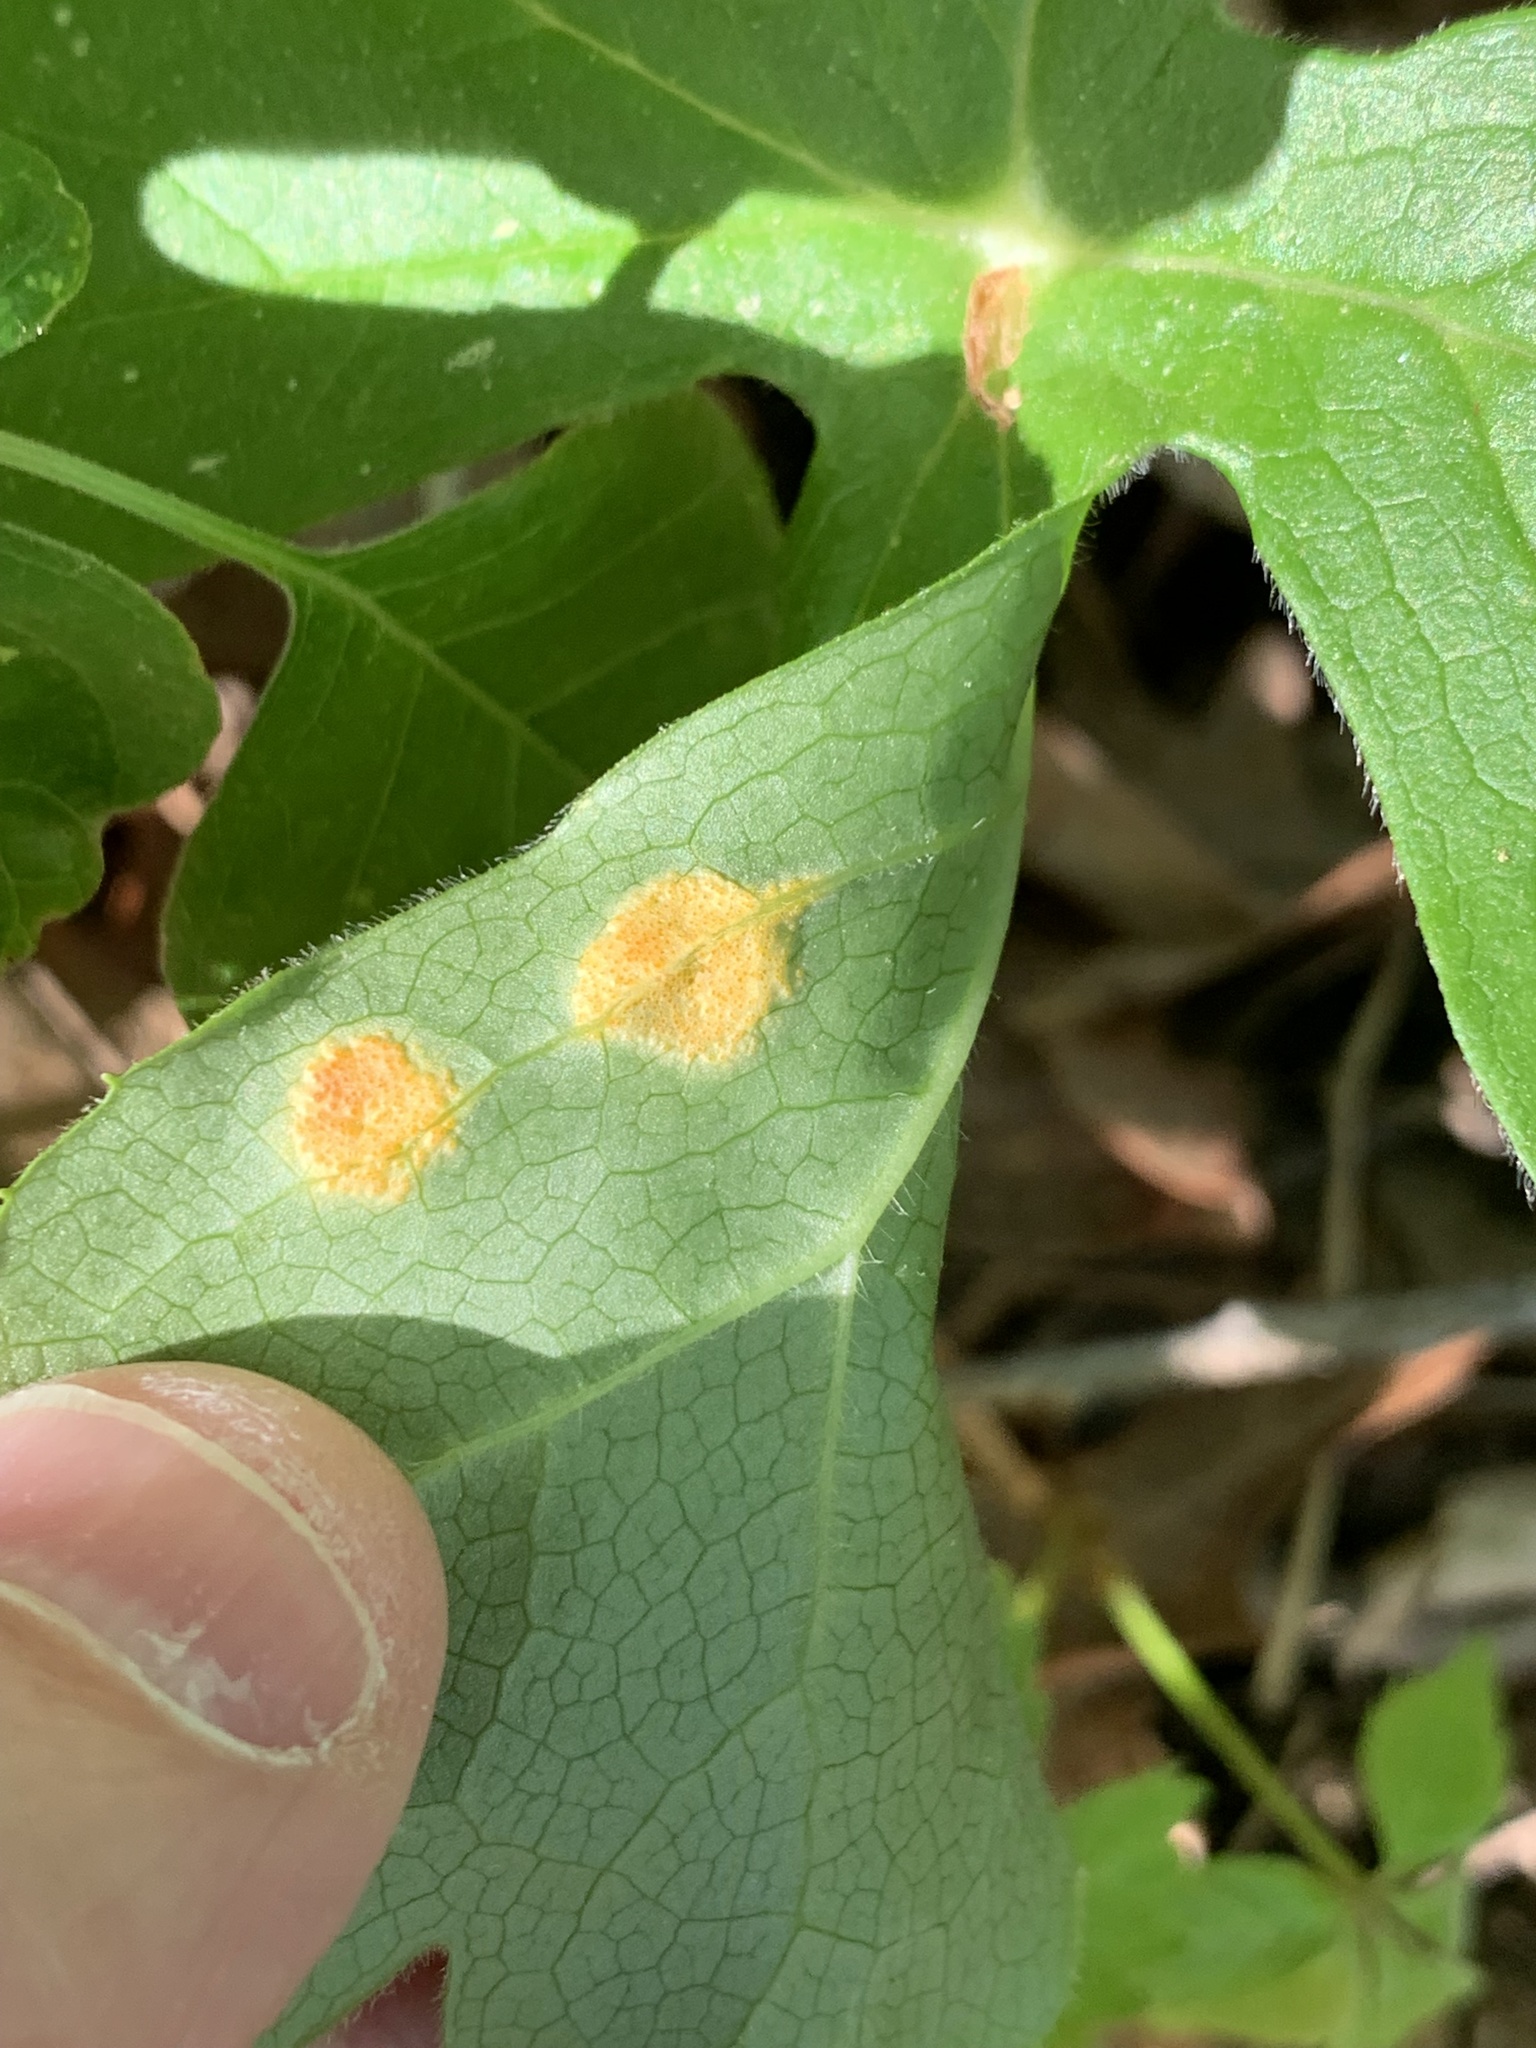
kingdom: Fungi
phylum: Basidiomycota
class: Pucciniomycetes
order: Pucciniales
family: Pucciniaceae
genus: Puccinia
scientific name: Puccinia podophylli
